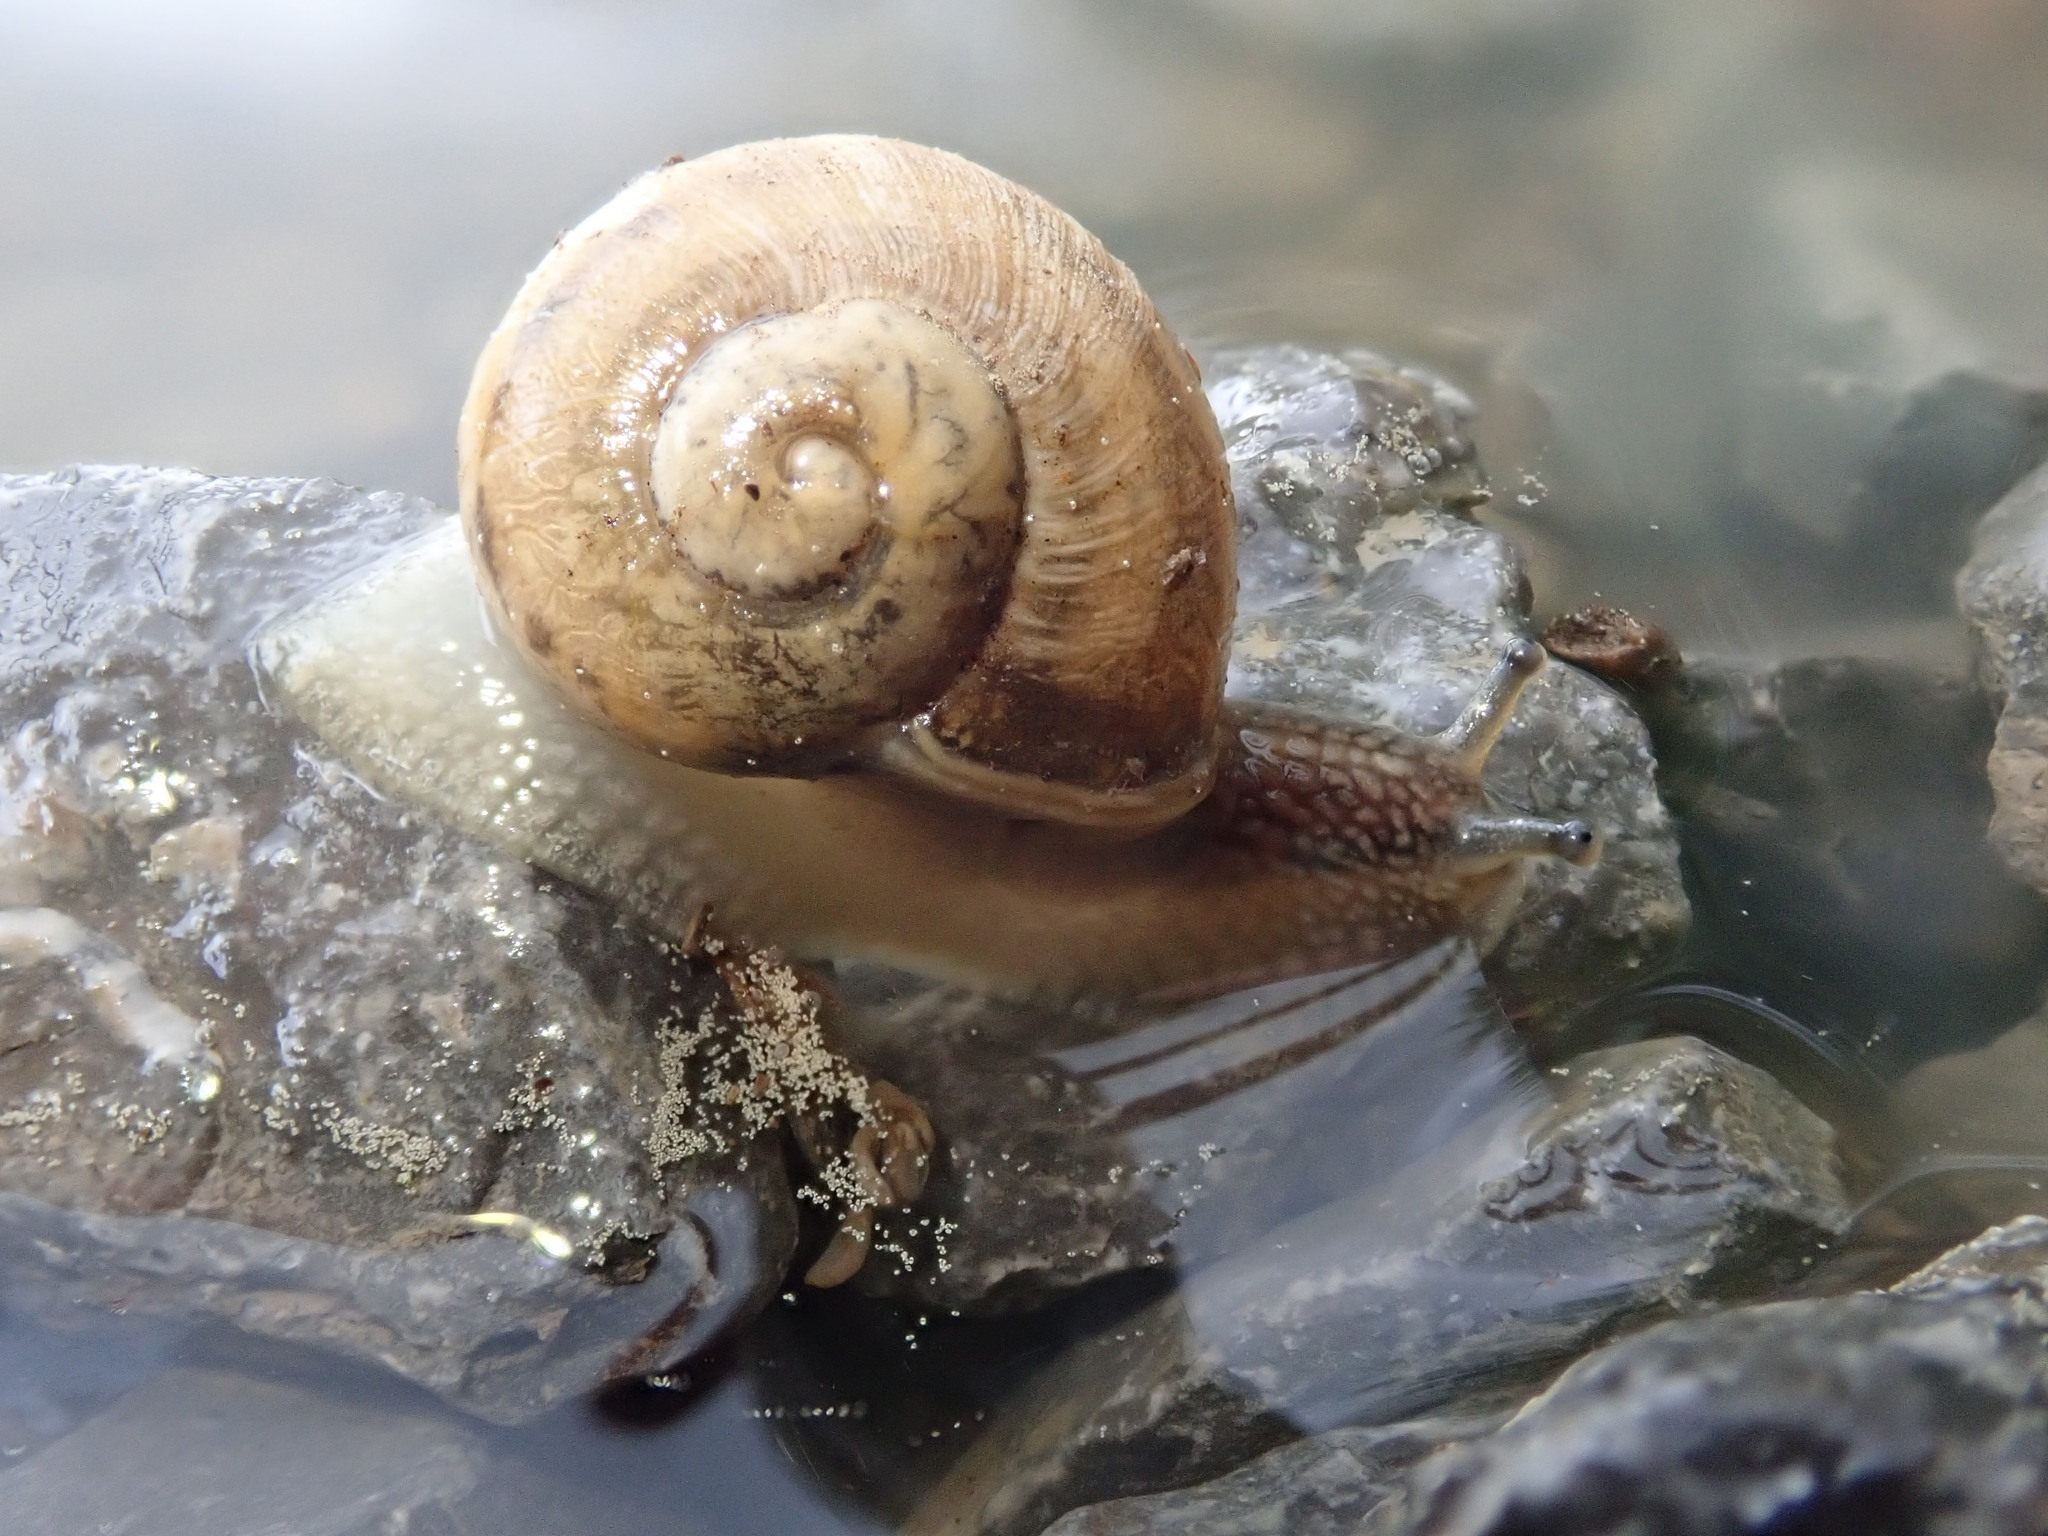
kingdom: Animalia
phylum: Mollusca
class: Gastropoda
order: Stylommatophora
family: Helicidae
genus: Cornu
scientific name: Cornu aspersum
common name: Brown garden snail
